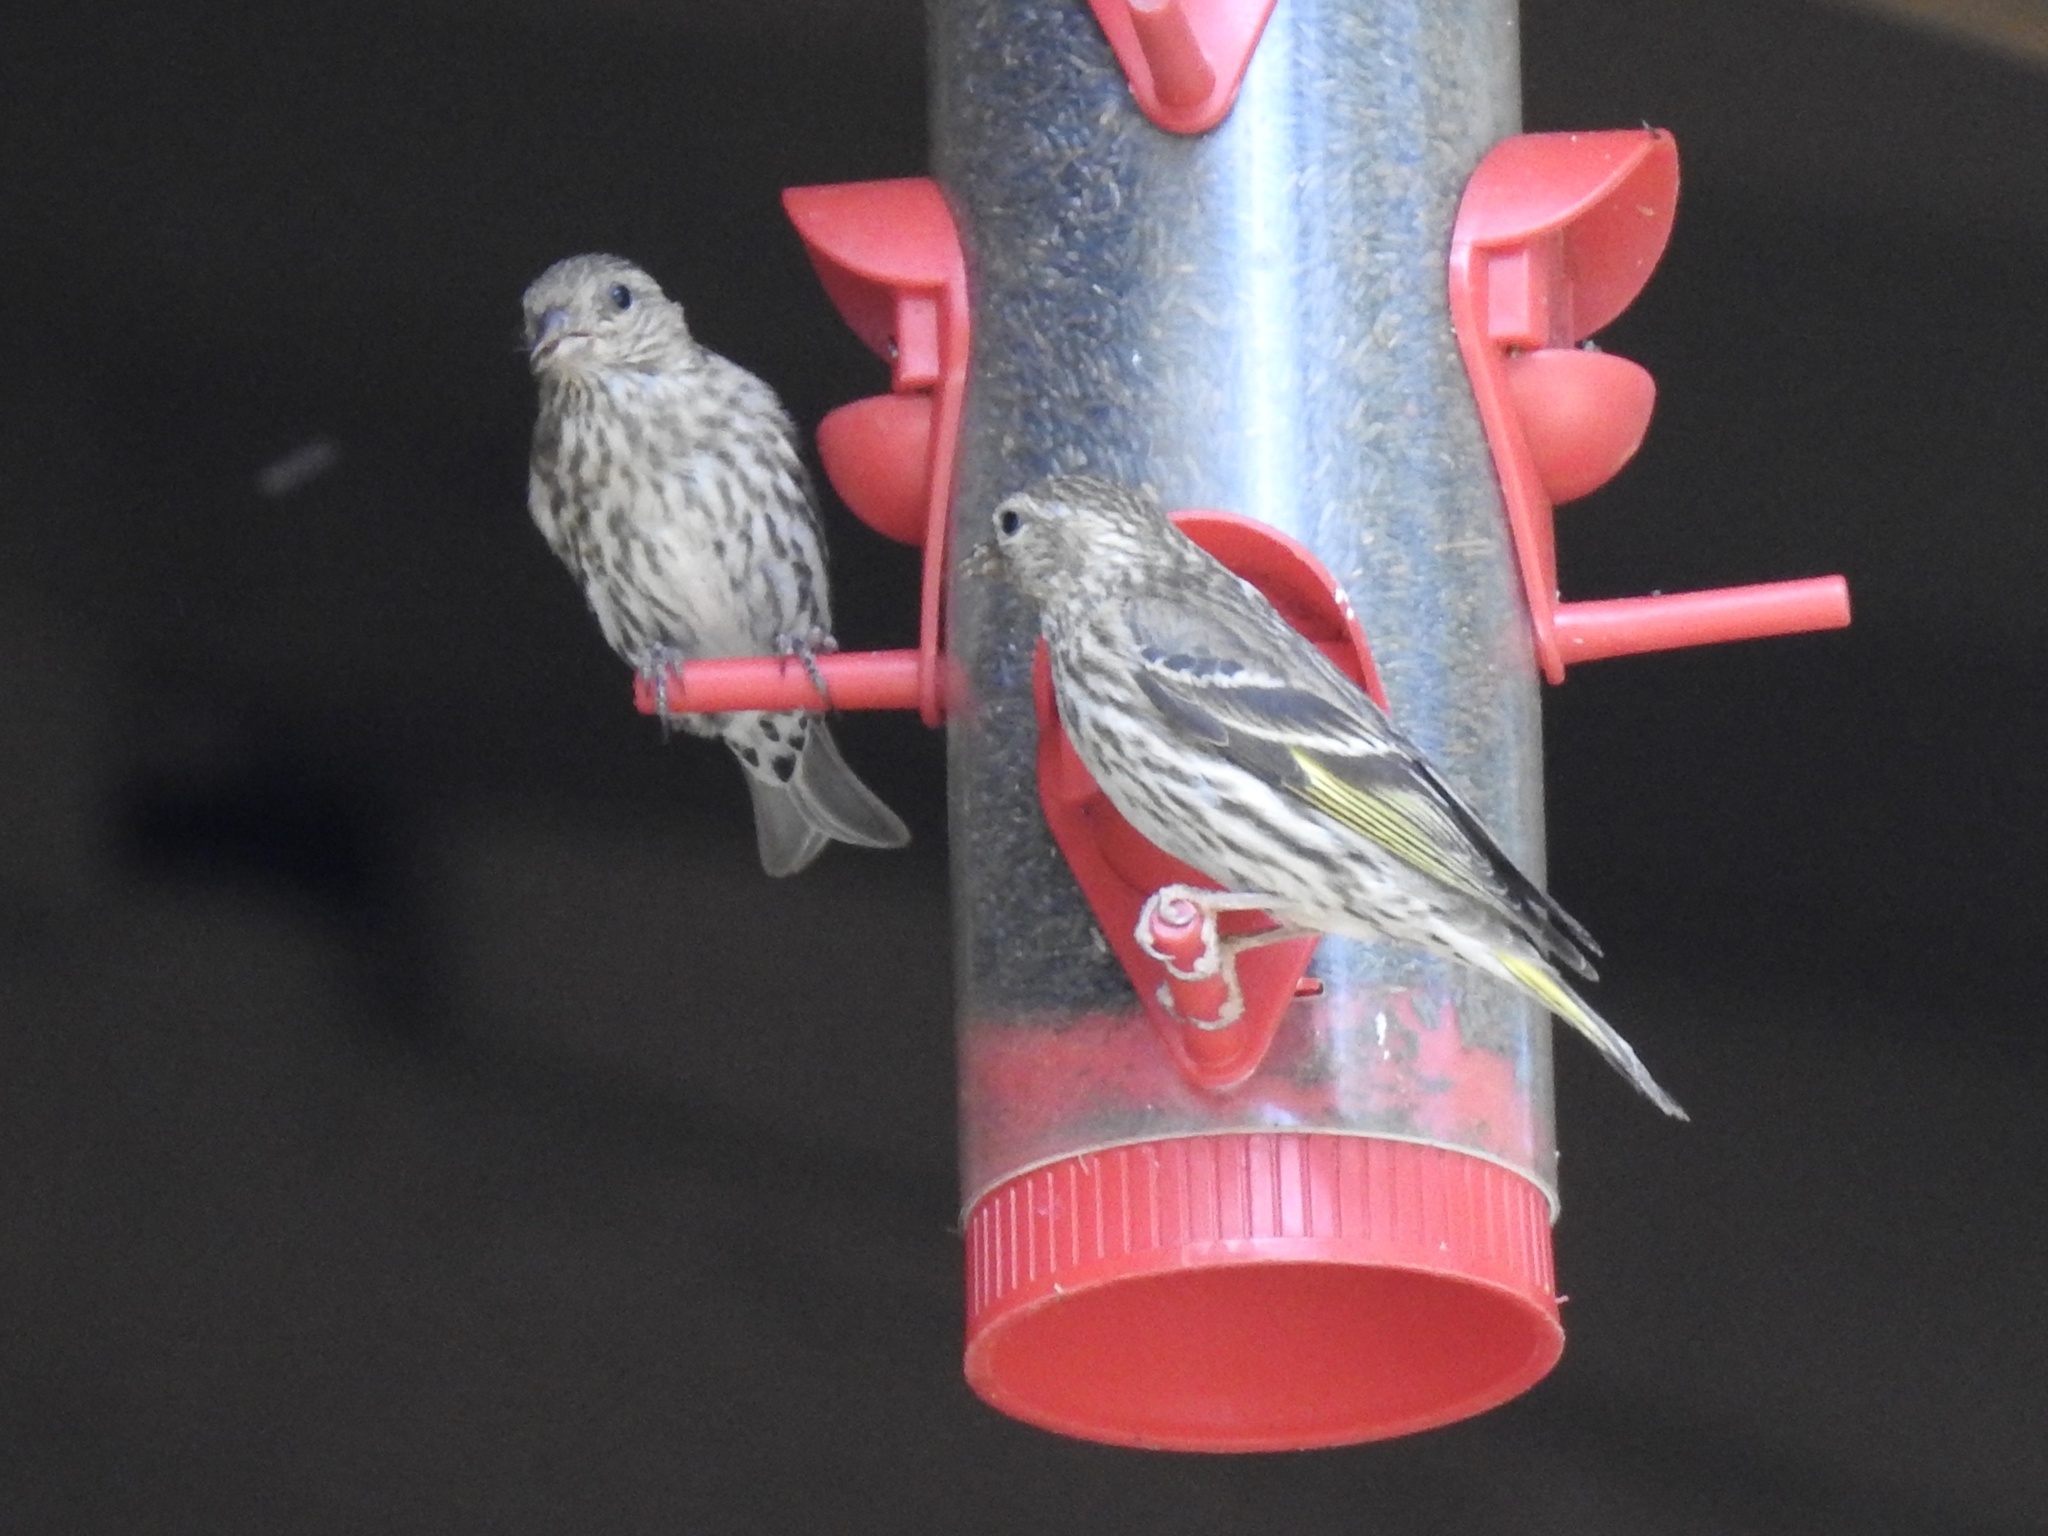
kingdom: Animalia
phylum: Chordata
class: Aves
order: Passeriformes
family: Fringillidae
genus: Spinus
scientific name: Spinus pinus
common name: Pine siskin
